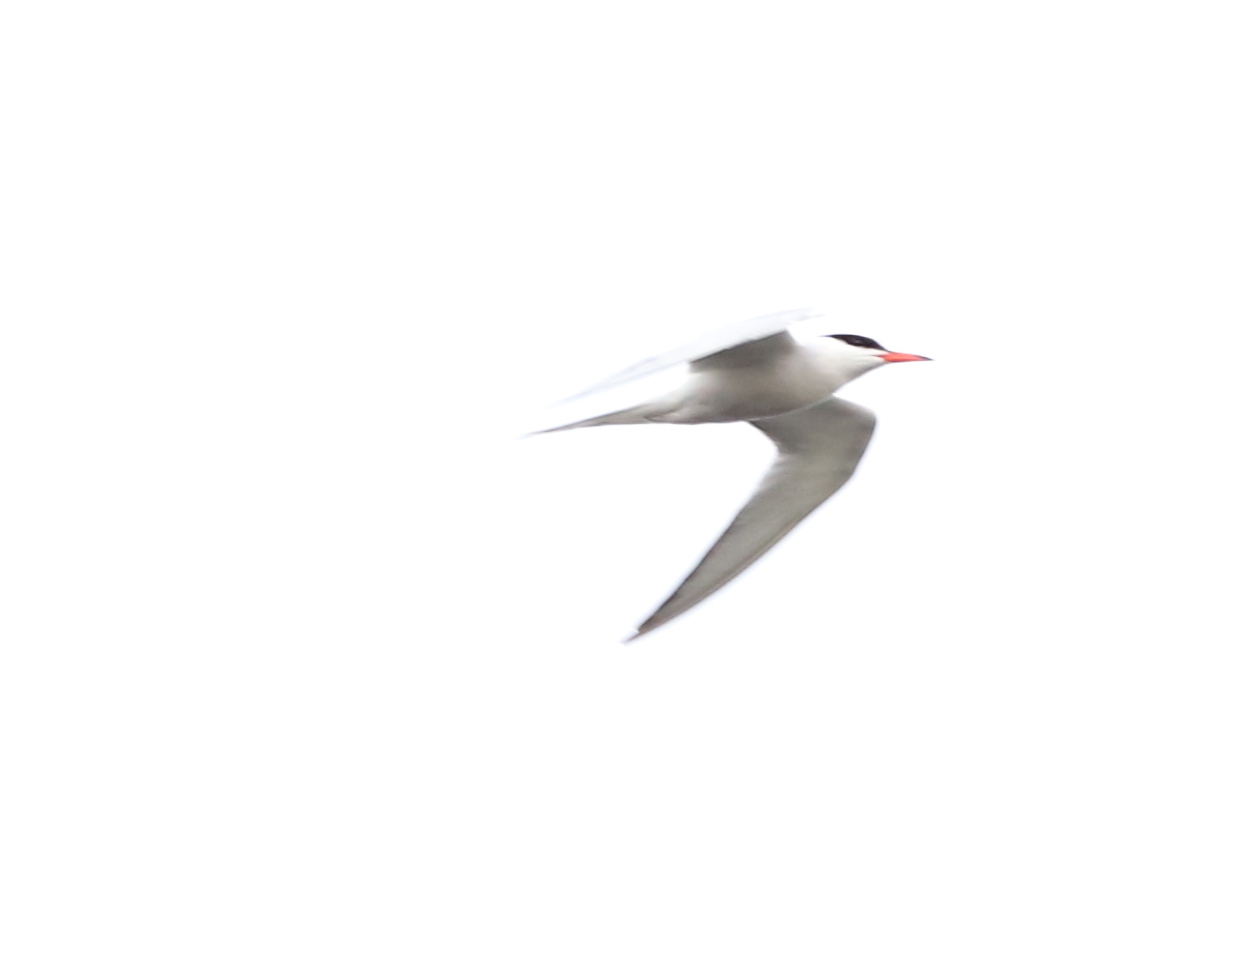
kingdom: Animalia
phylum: Chordata
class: Aves
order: Charadriiformes
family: Laridae
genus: Sterna
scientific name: Sterna hirundo
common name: Common tern
